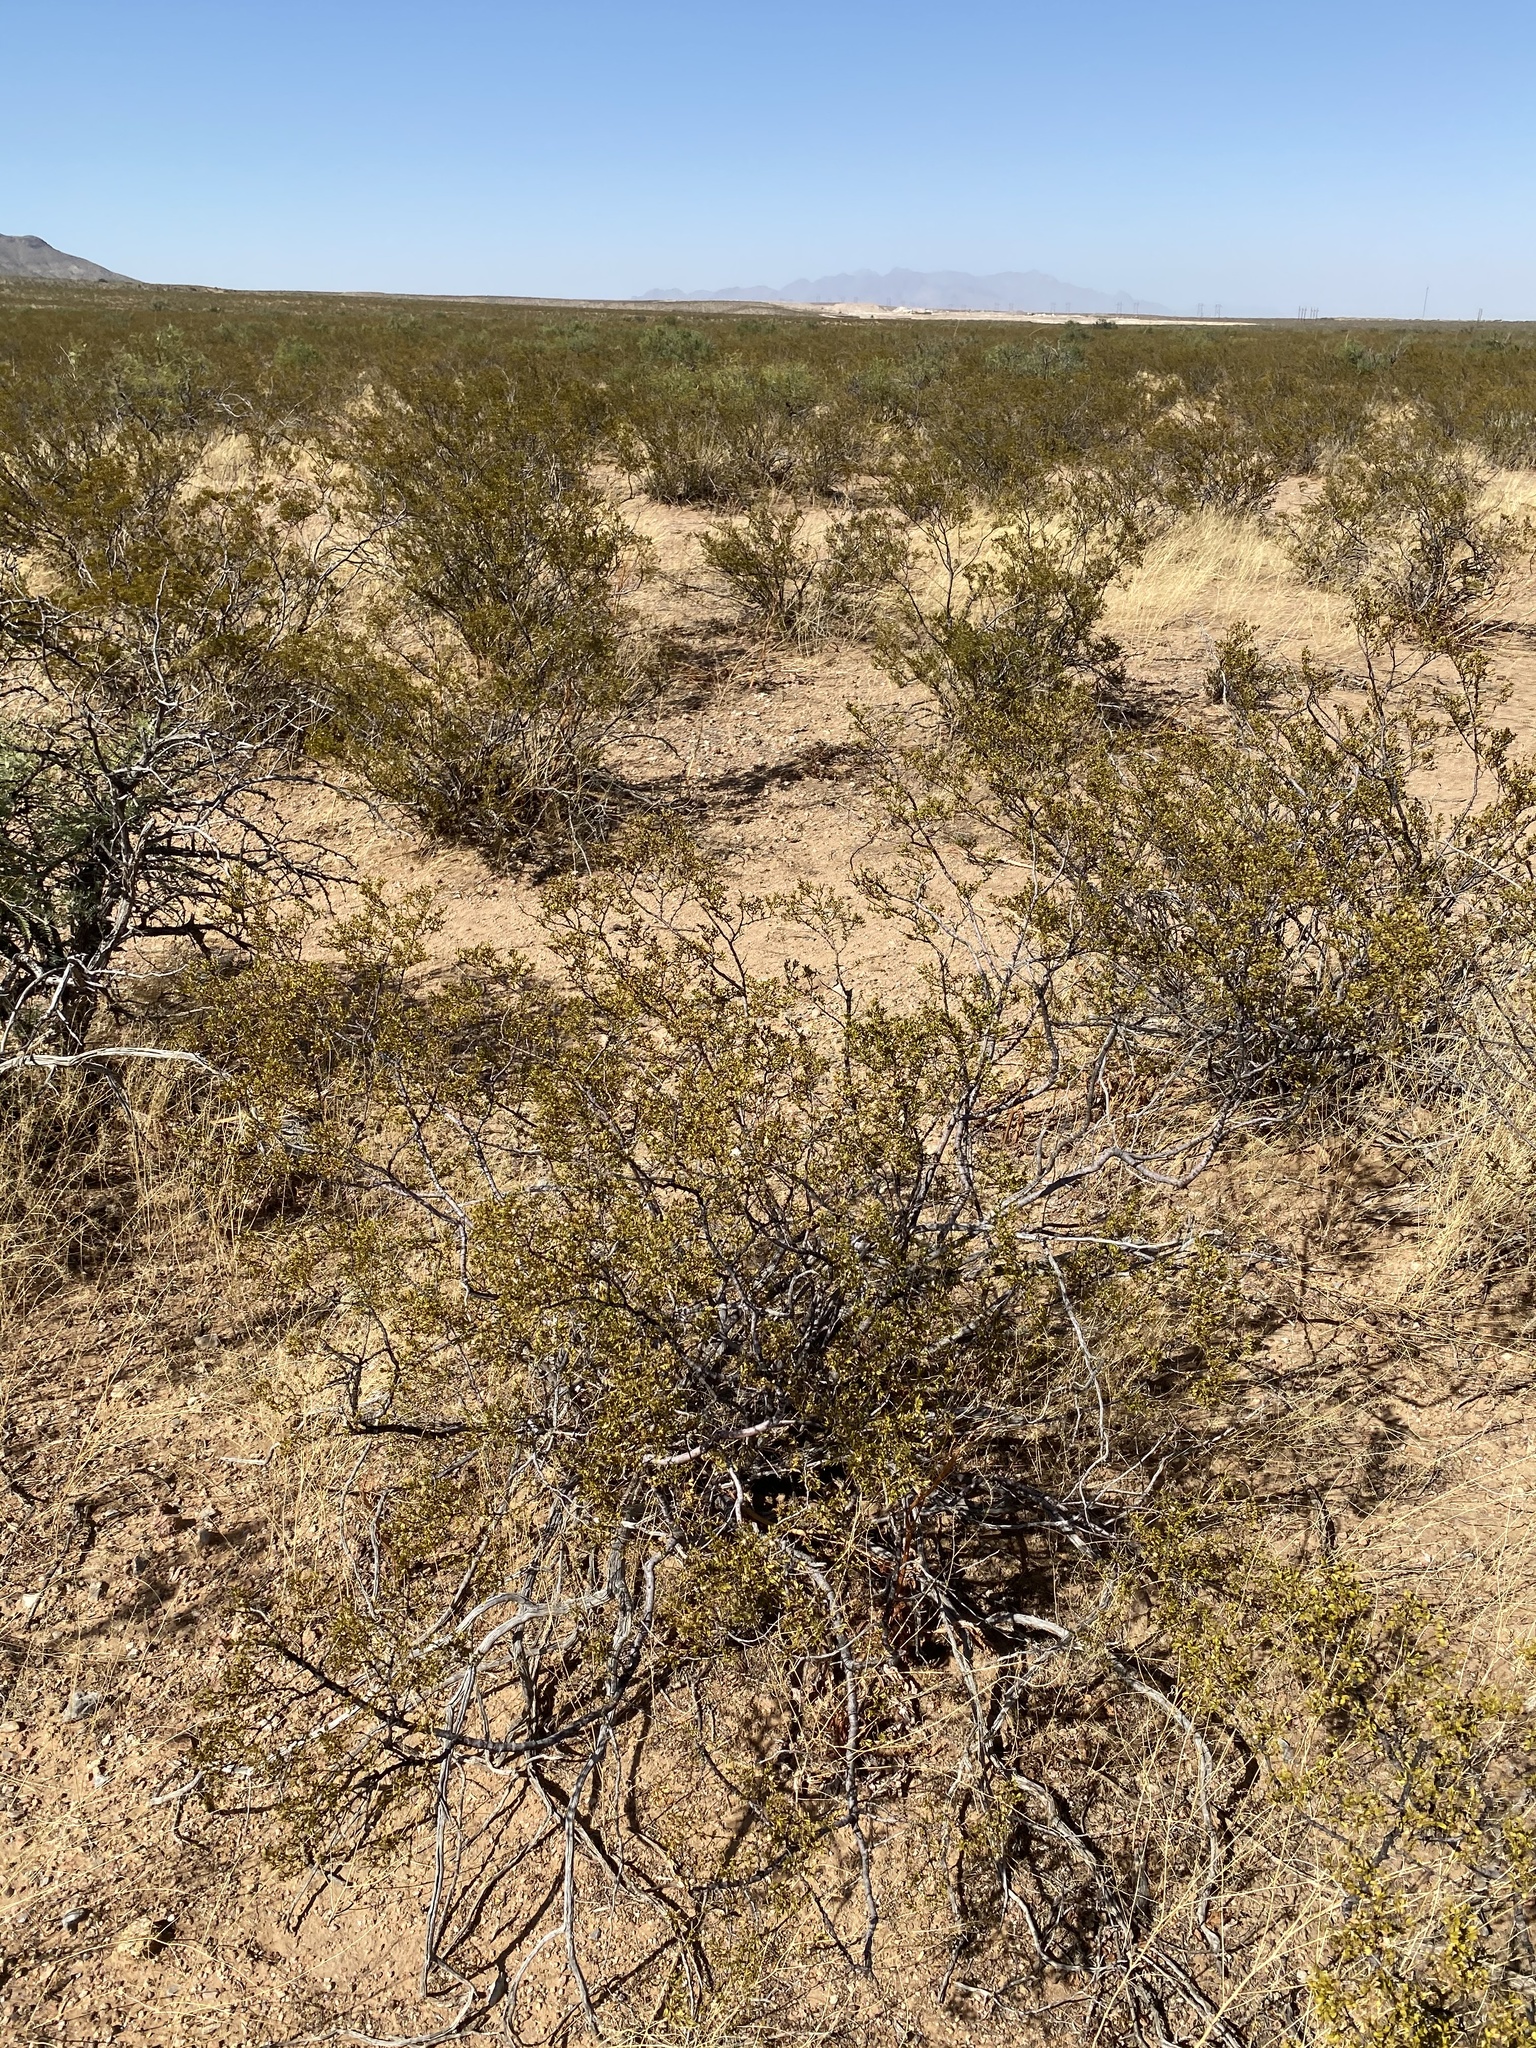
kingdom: Plantae
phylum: Tracheophyta
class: Magnoliopsida
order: Zygophyllales
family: Zygophyllaceae
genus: Larrea
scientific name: Larrea tridentata
